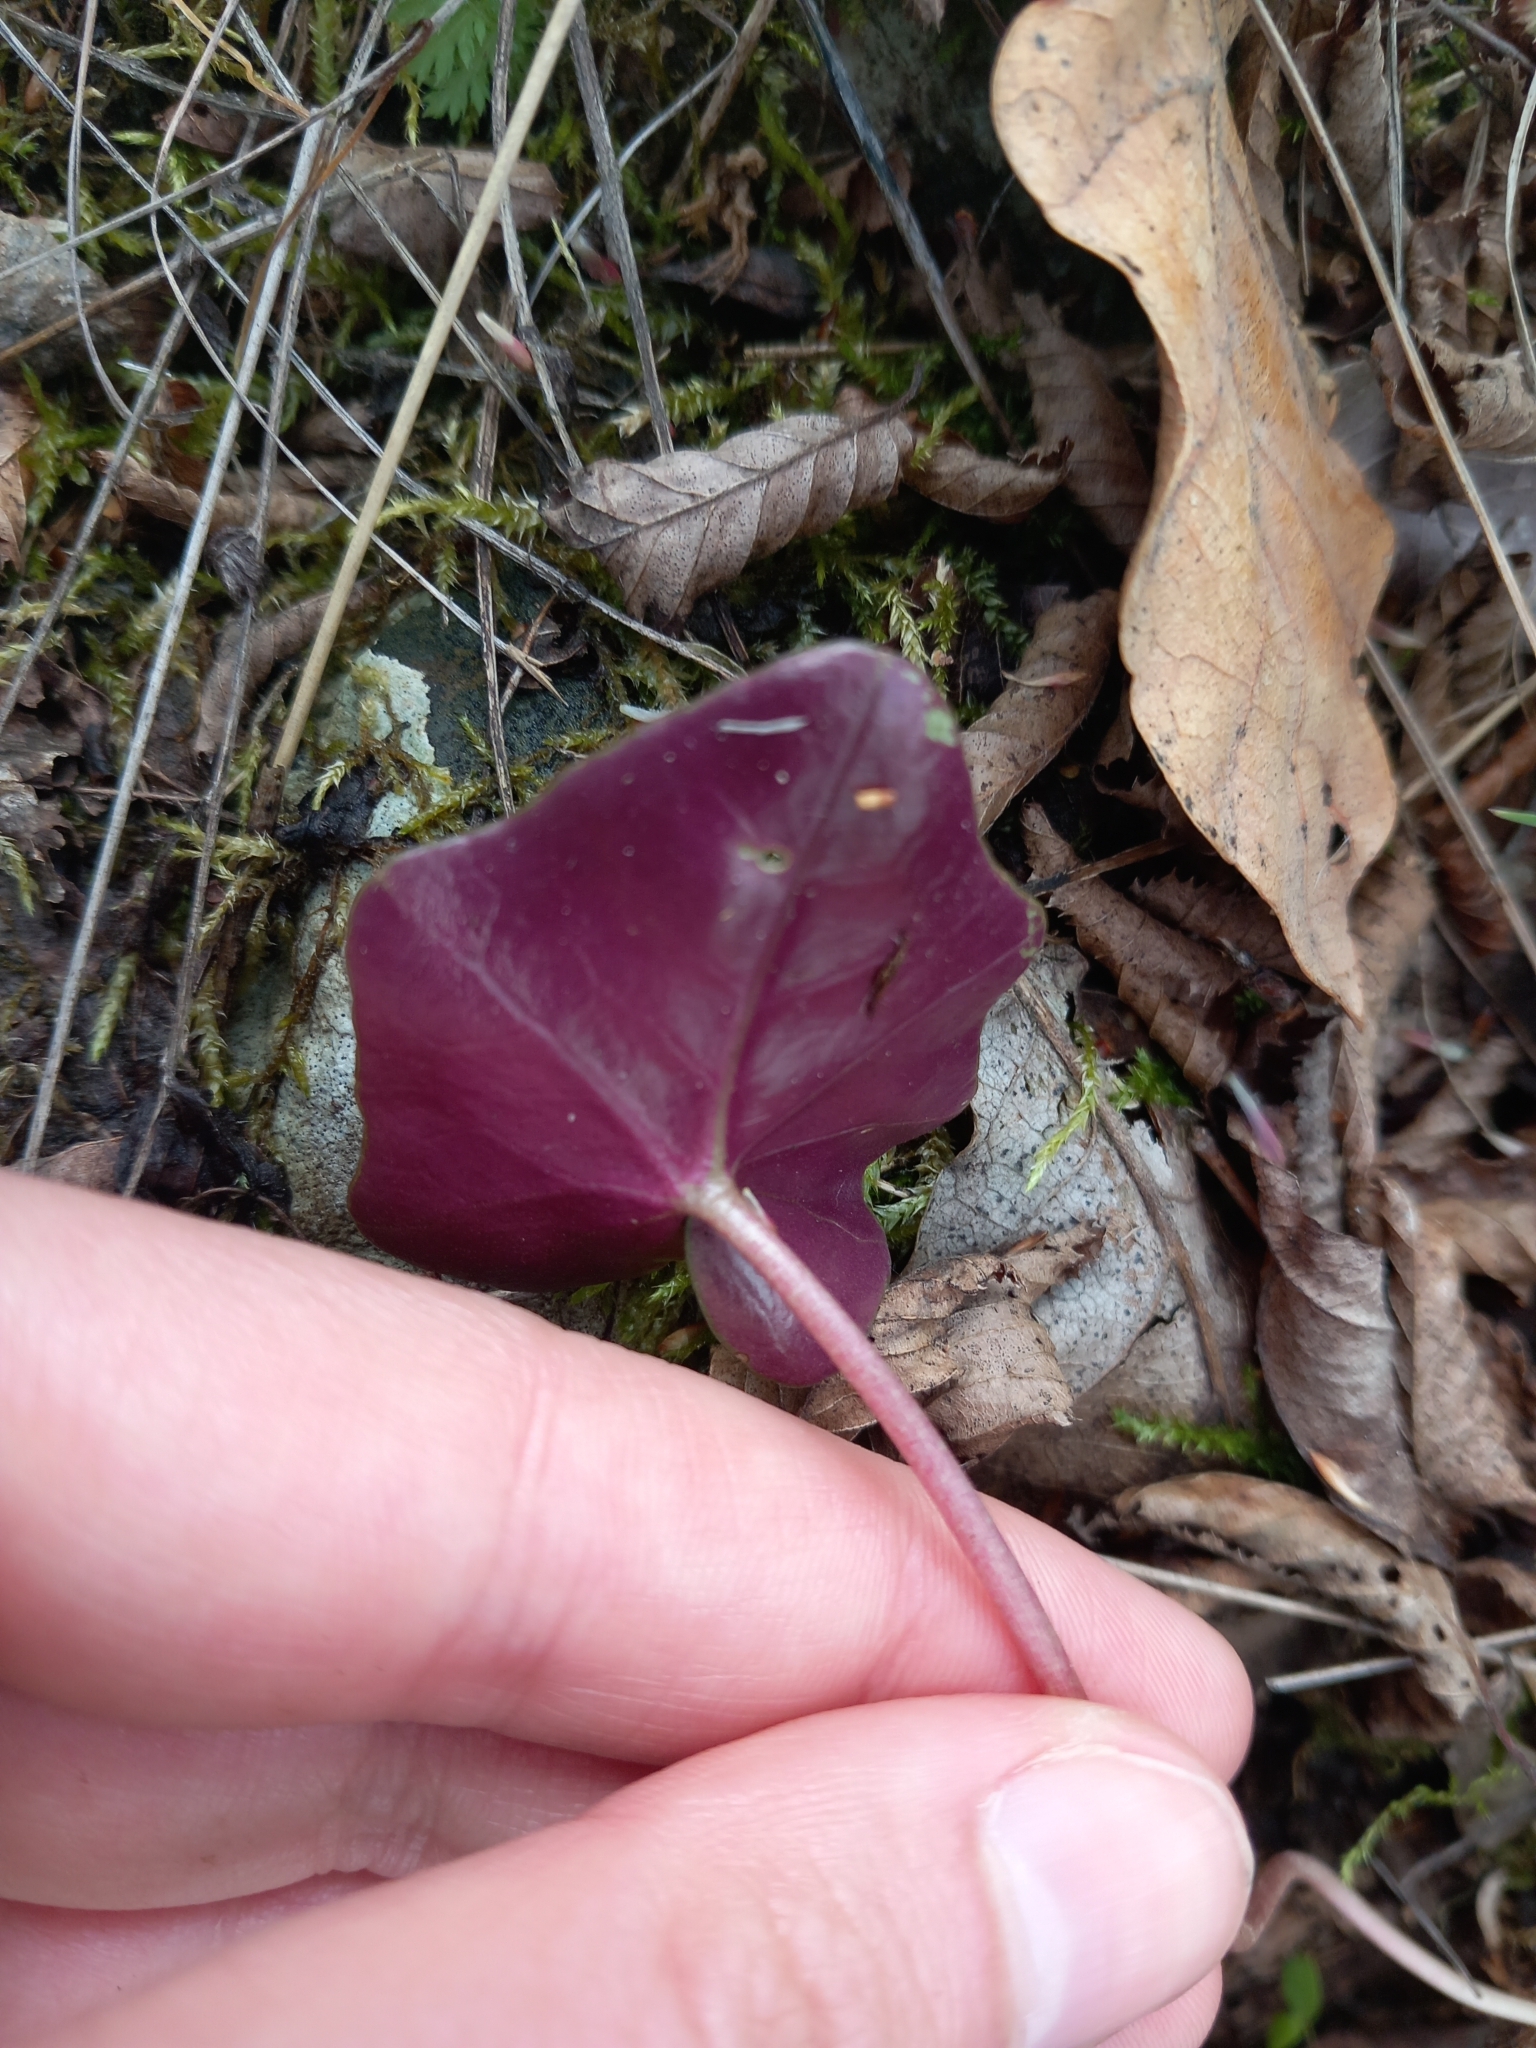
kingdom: Plantae
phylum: Tracheophyta
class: Magnoliopsida
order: Ericales
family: Primulaceae
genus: Cyclamen
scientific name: Cyclamen hederifolium
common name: Sowbread
